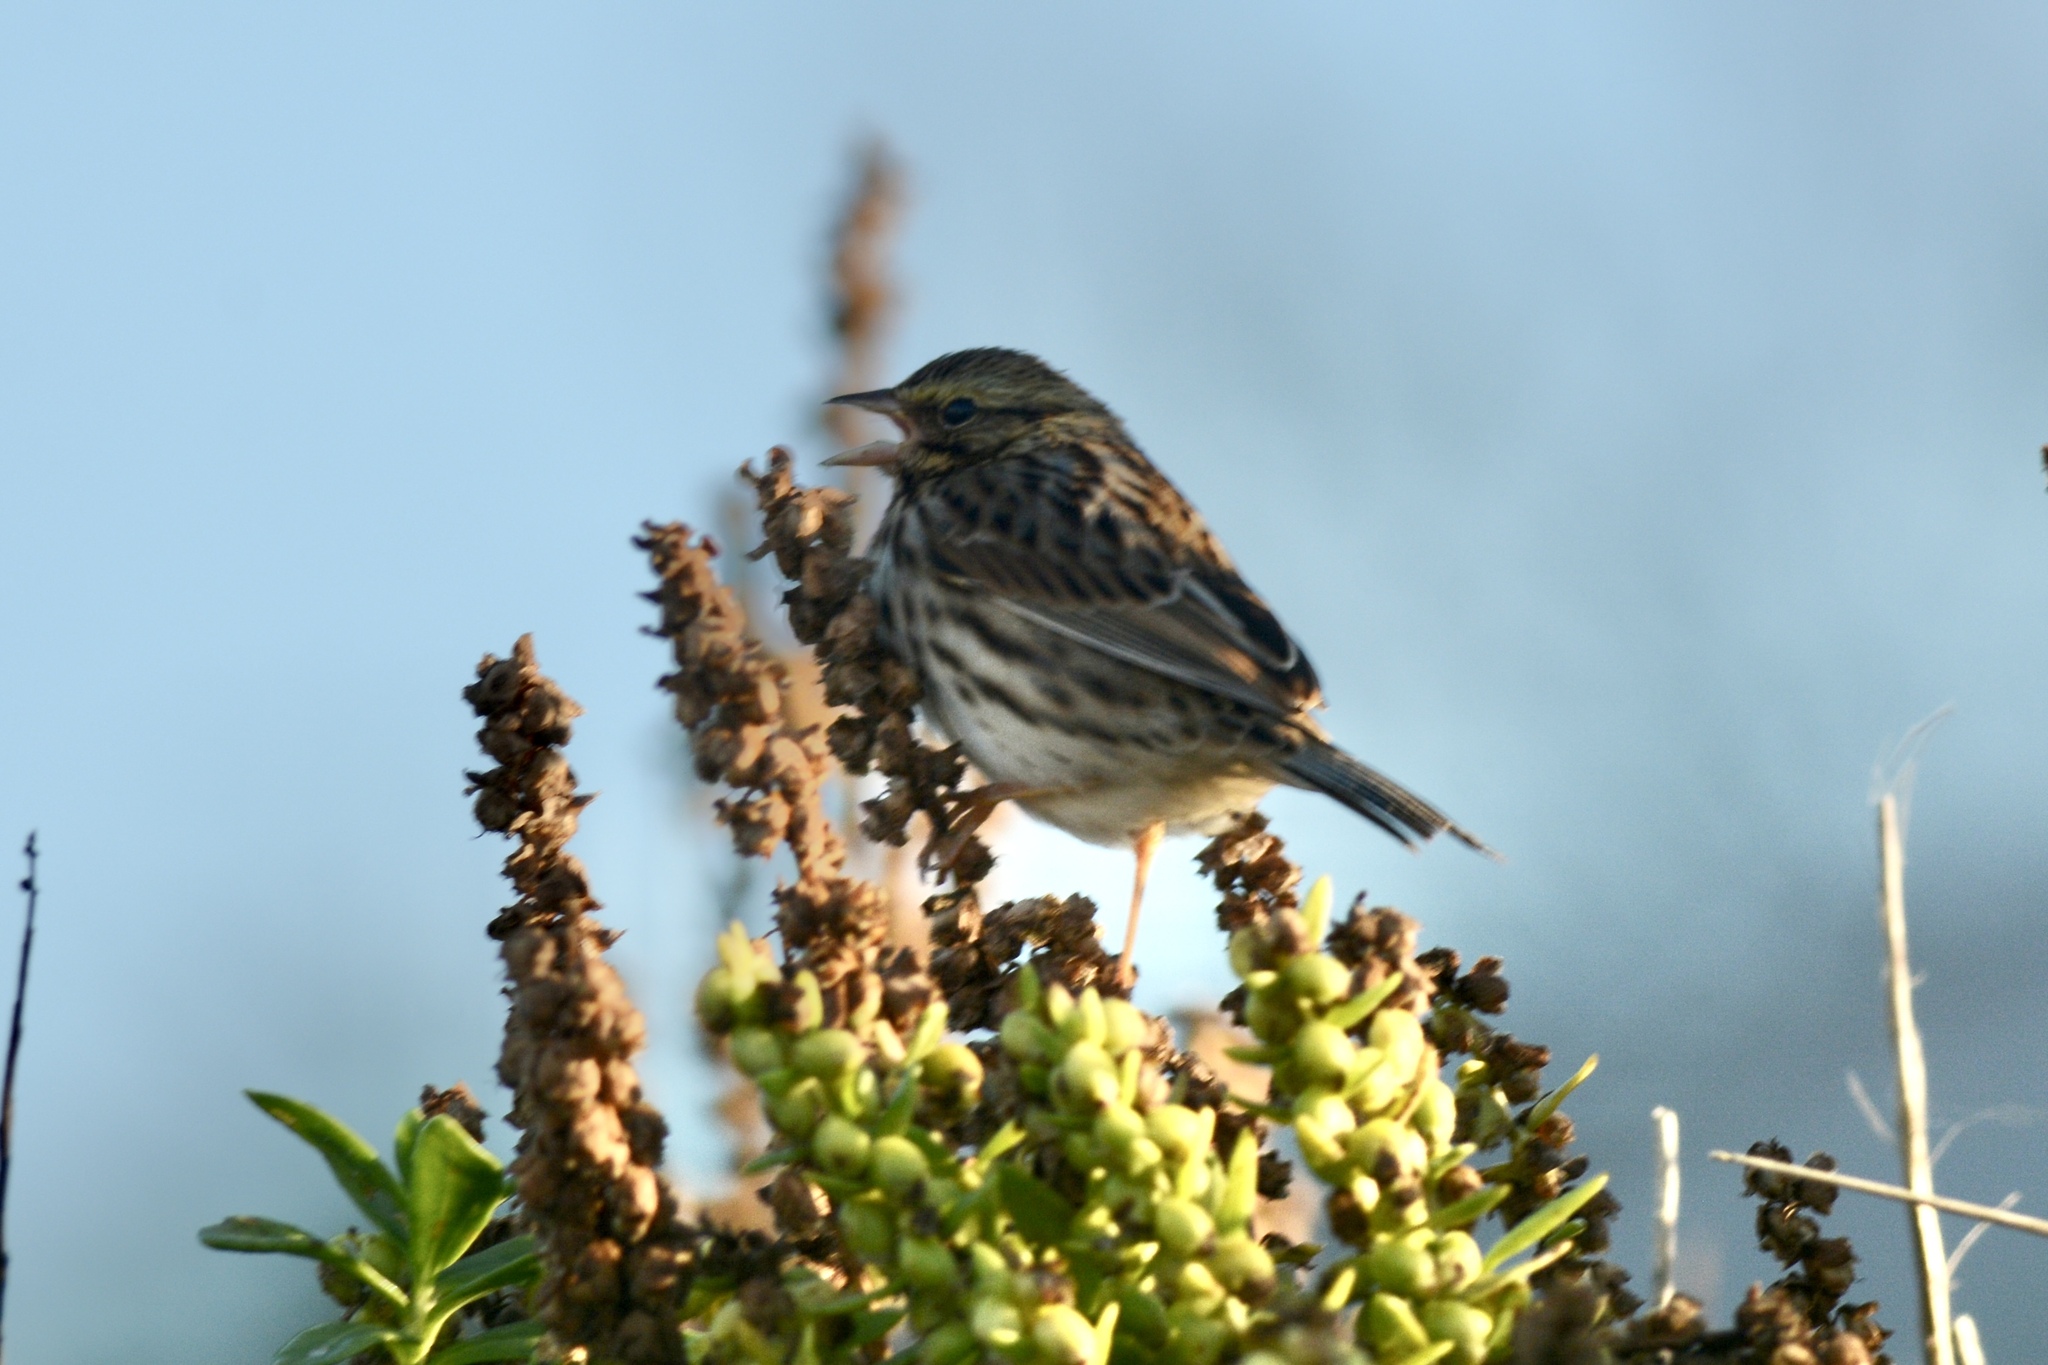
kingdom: Animalia
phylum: Chordata
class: Aves
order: Passeriformes
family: Passerellidae
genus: Passerculus
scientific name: Passerculus sandwichensis
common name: Savannah sparrow
